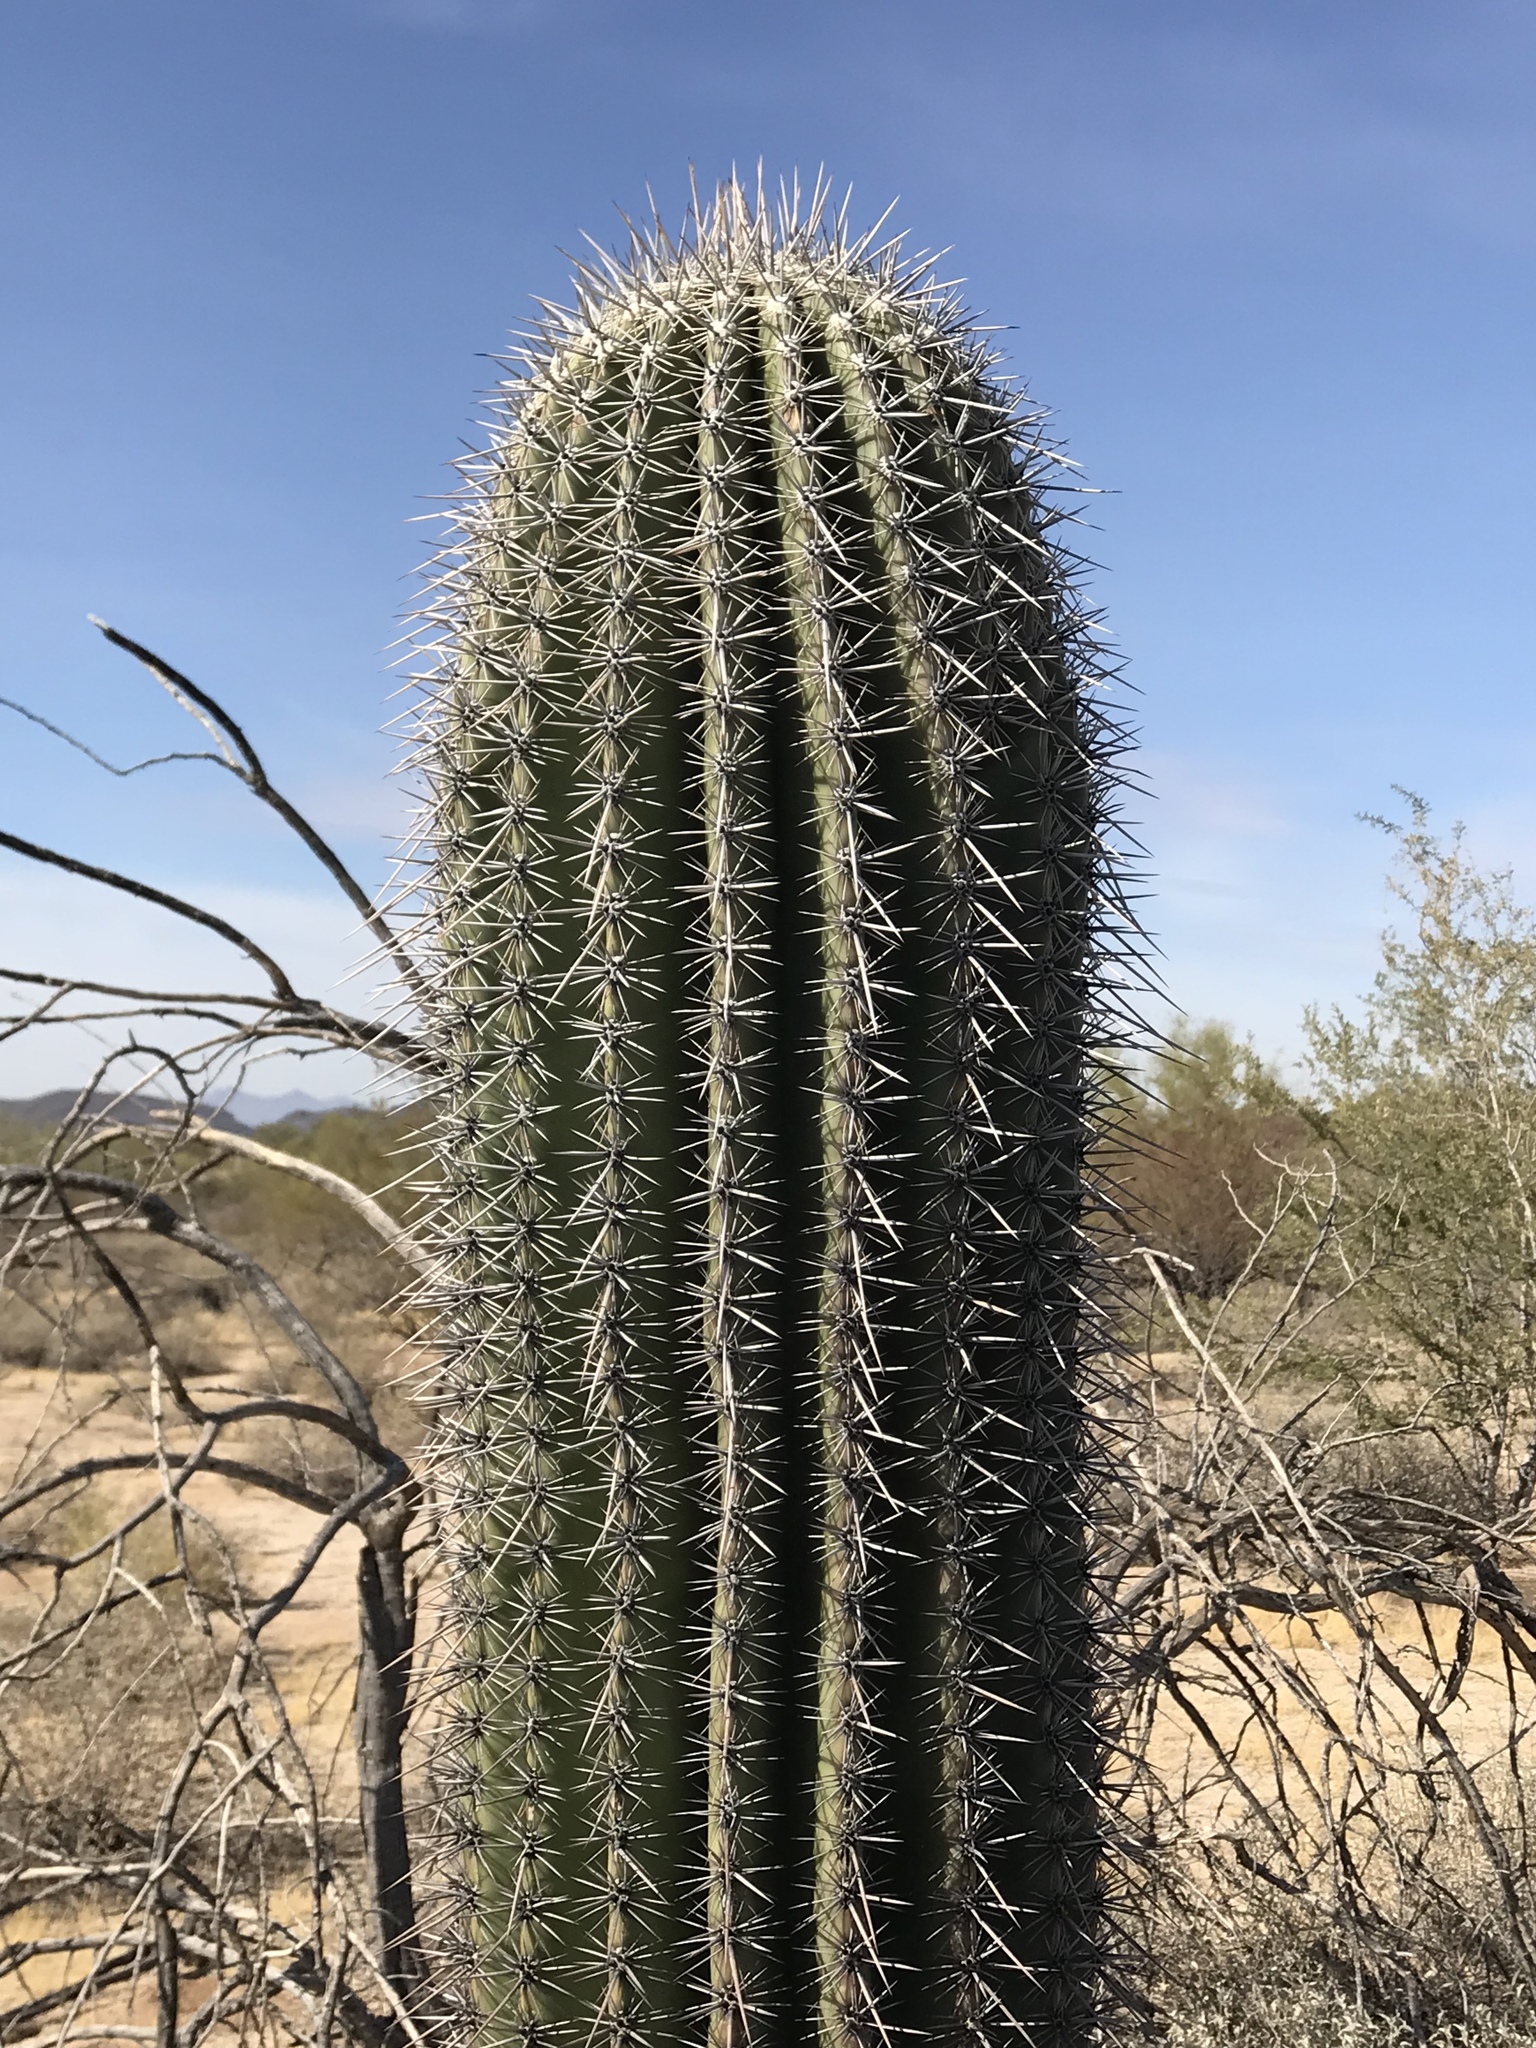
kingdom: Plantae
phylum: Tracheophyta
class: Magnoliopsida
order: Caryophyllales
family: Cactaceae
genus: Carnegiea
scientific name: Carnegiea gigantea
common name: Saguaro
